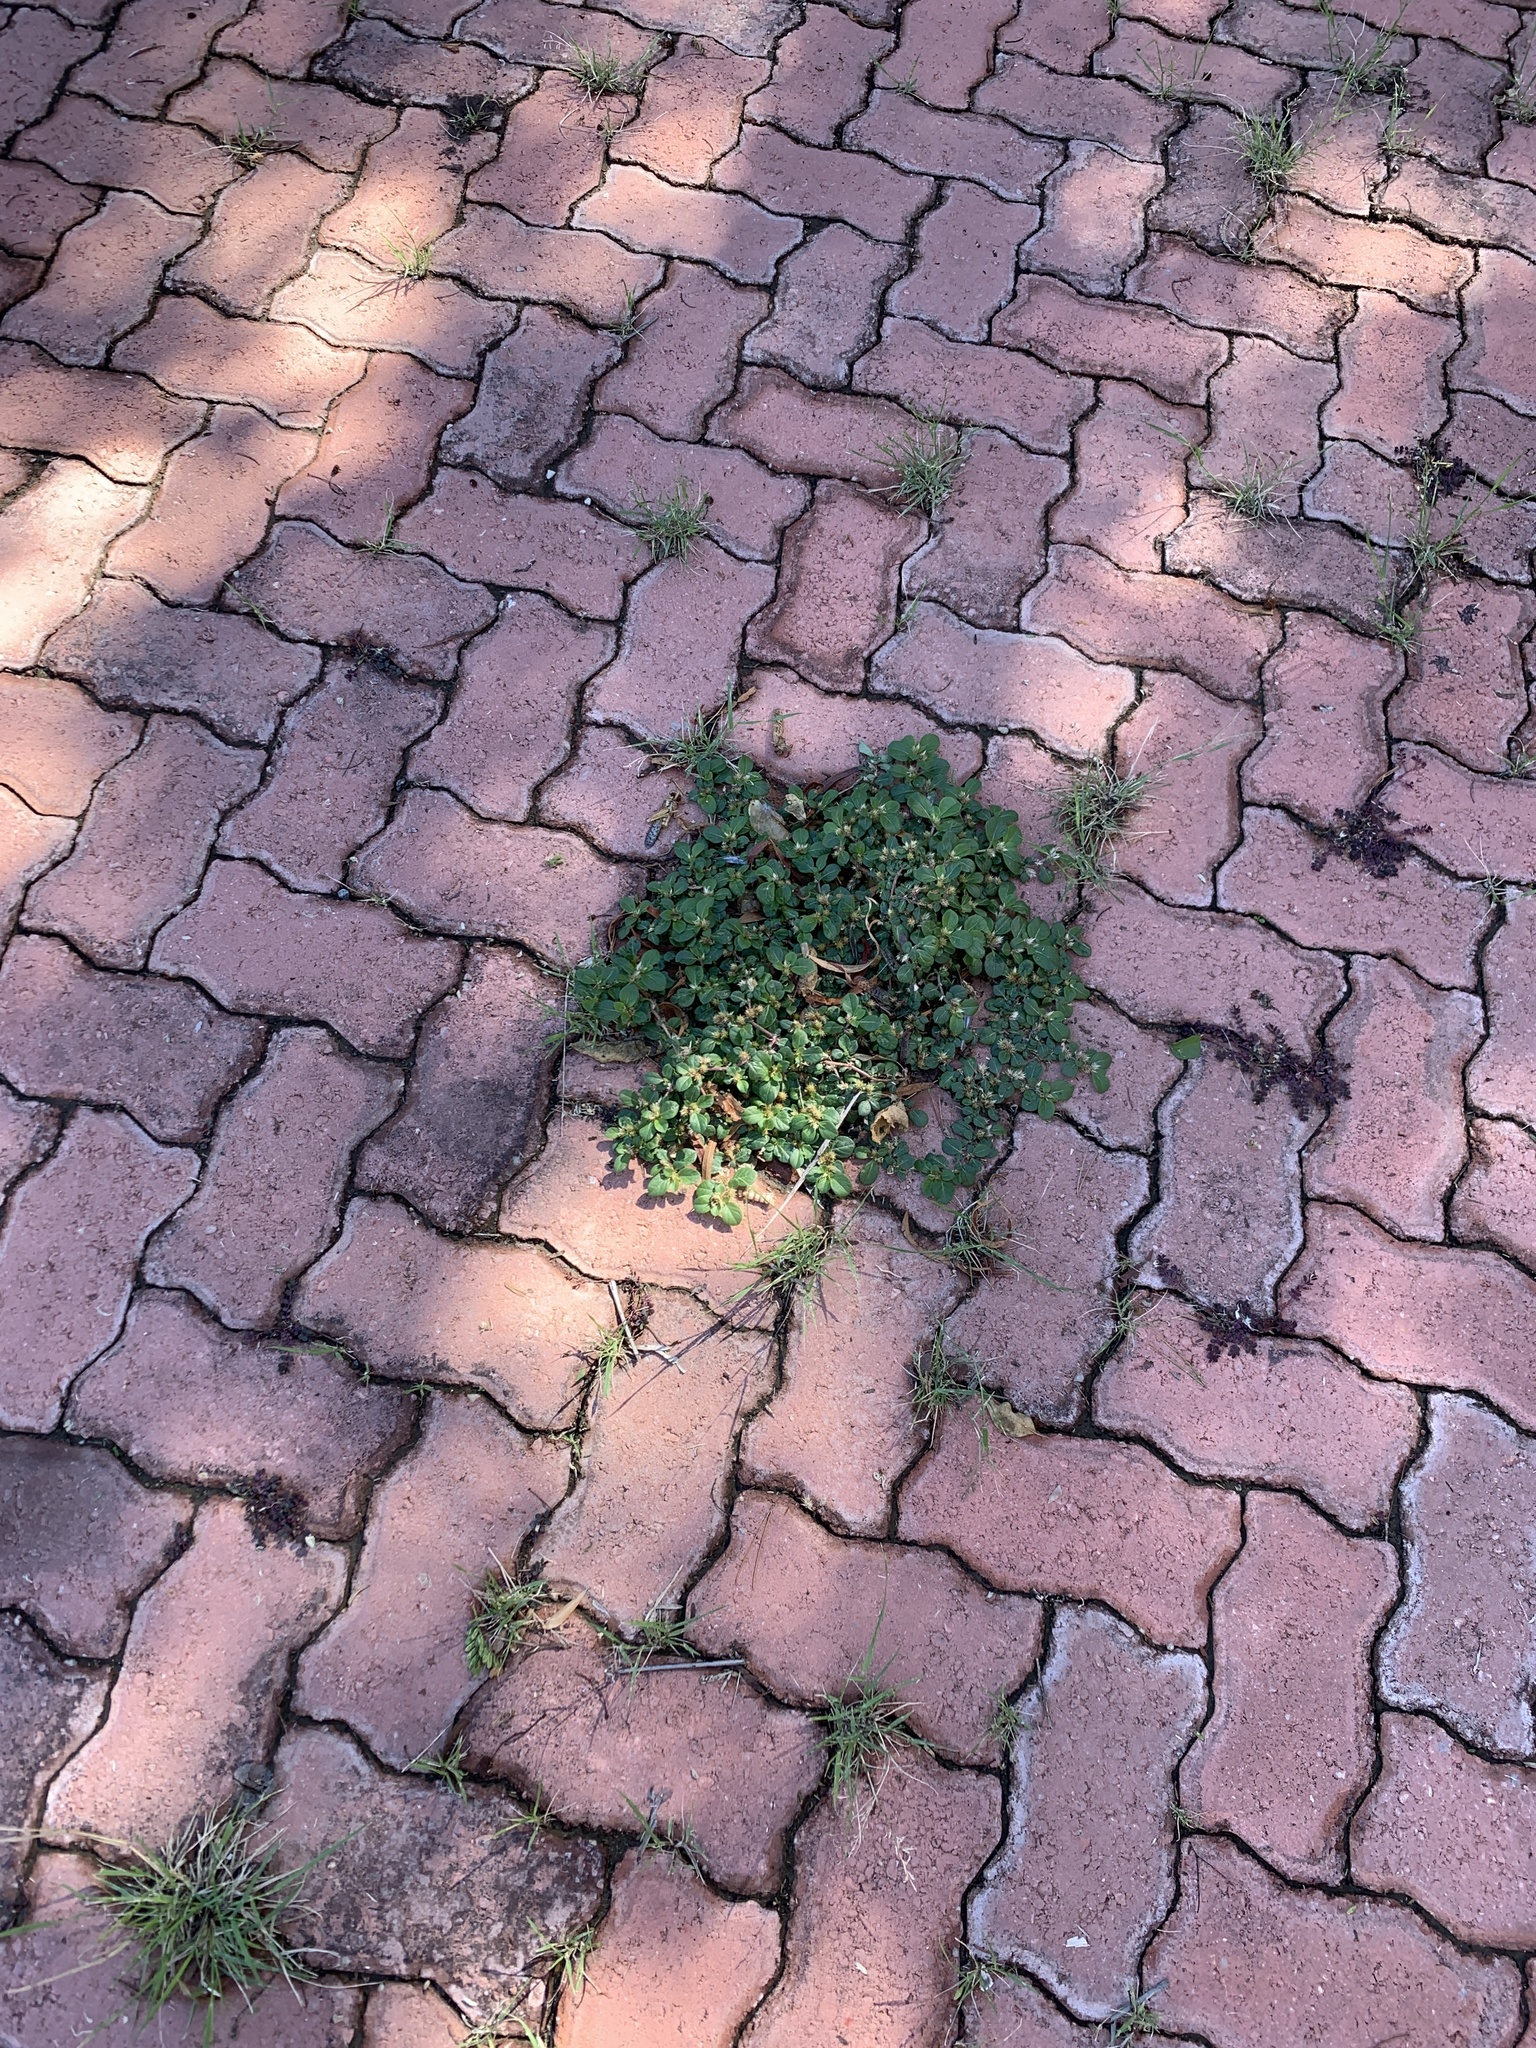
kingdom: Plantae
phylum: Tracheophyta
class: Magnoliopsida
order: Caryophyllales
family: Amaranthaceae
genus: Alternanthera
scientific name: Alternanthera pungens
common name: Khakiweed
